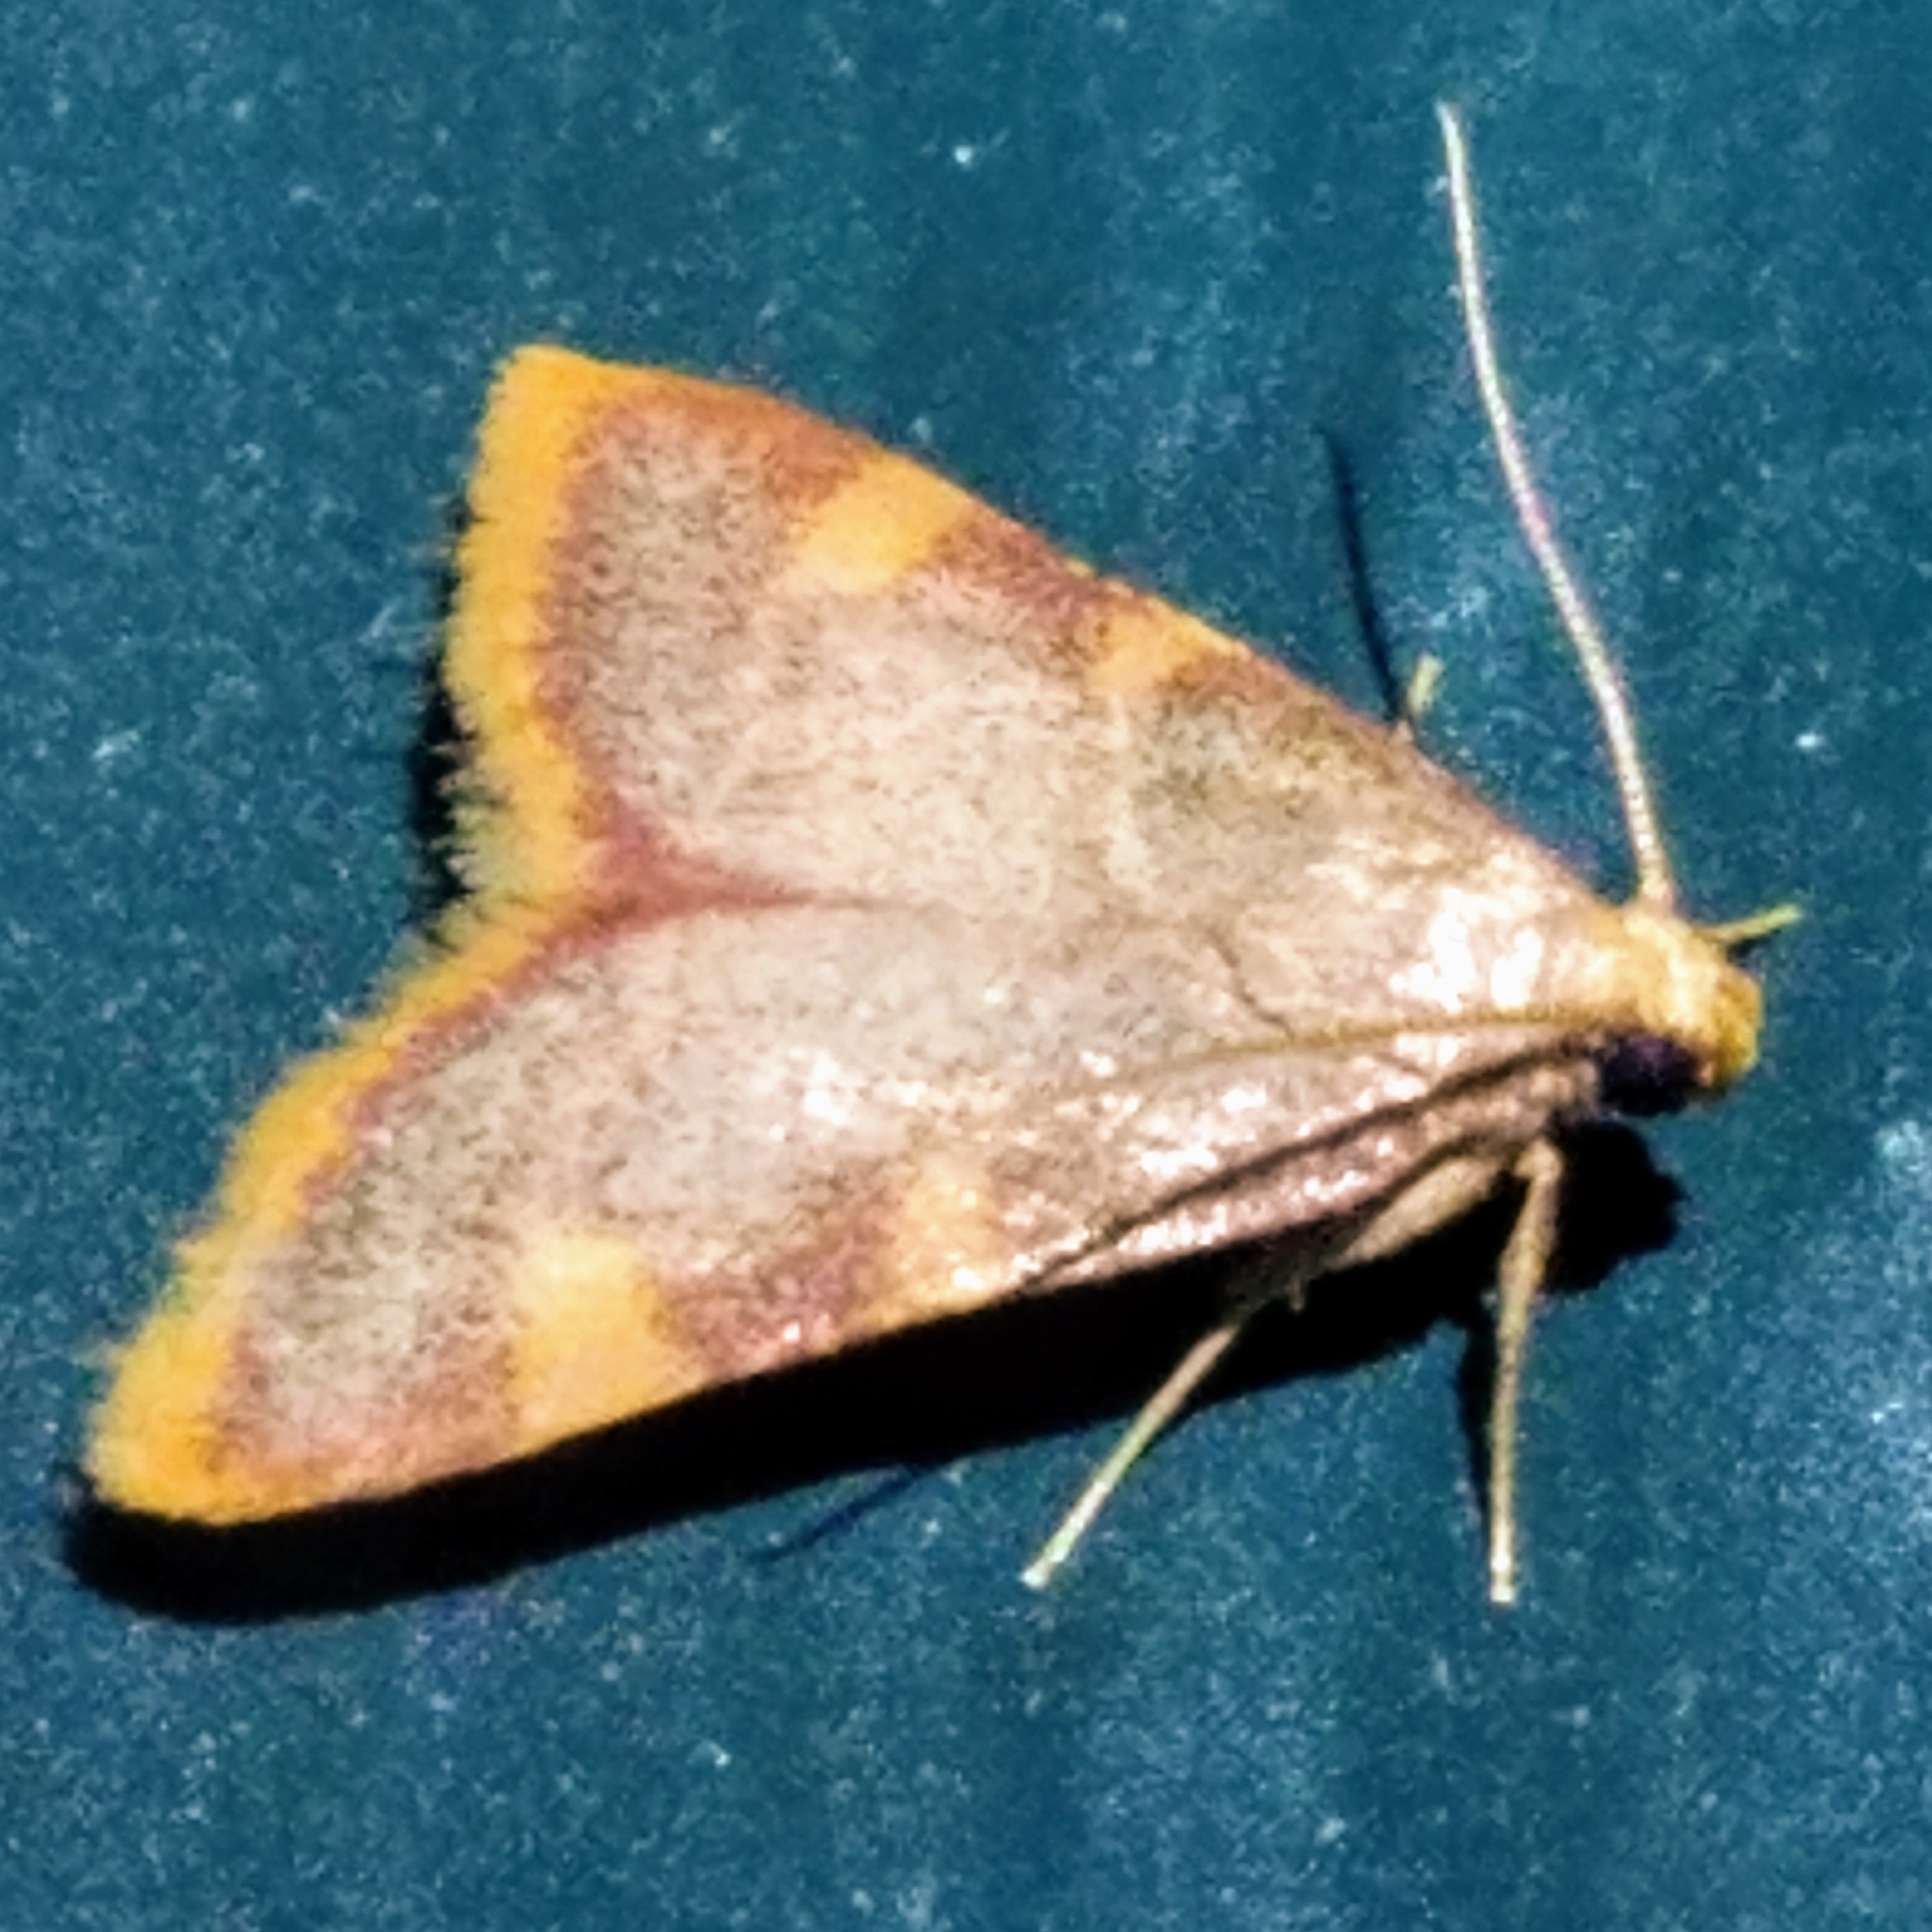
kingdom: Animalia
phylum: Arthropoda
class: Insecta
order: Lepidoptera
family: Pyralidae
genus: Hypsopygia
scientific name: Hypsopygia costalis
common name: Gold triangle
